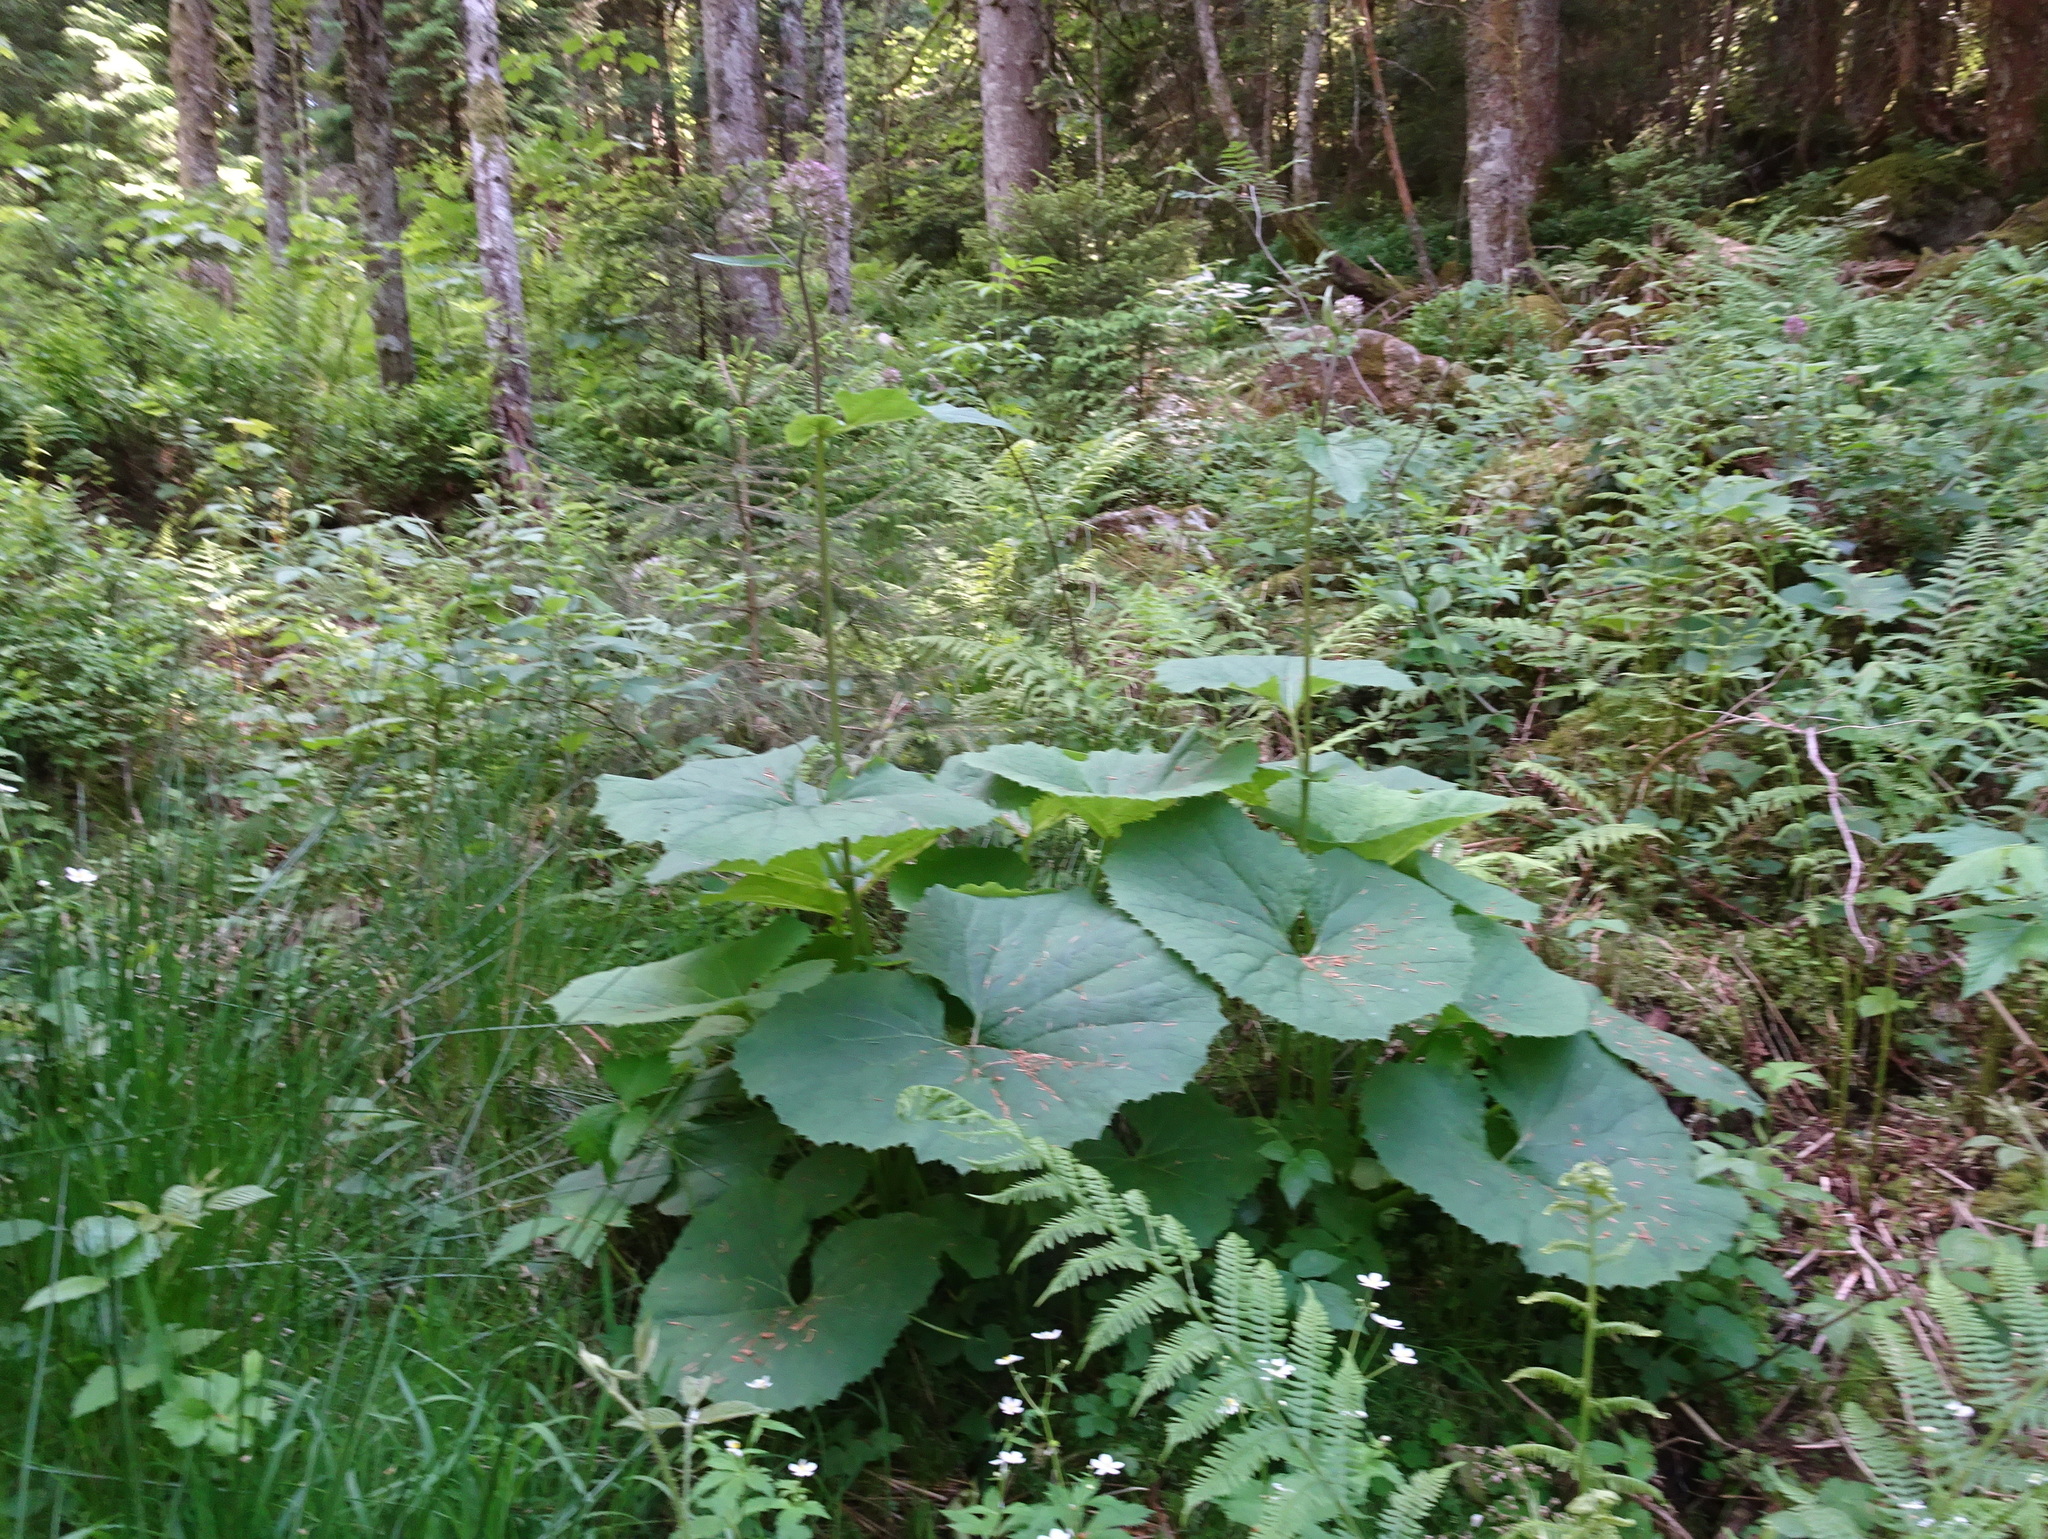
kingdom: Plantae
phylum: Tracheophyta
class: Magnoliopsida
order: Asterales
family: Asteraceae
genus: Adenostyles
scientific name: Adenostyles alliariae
